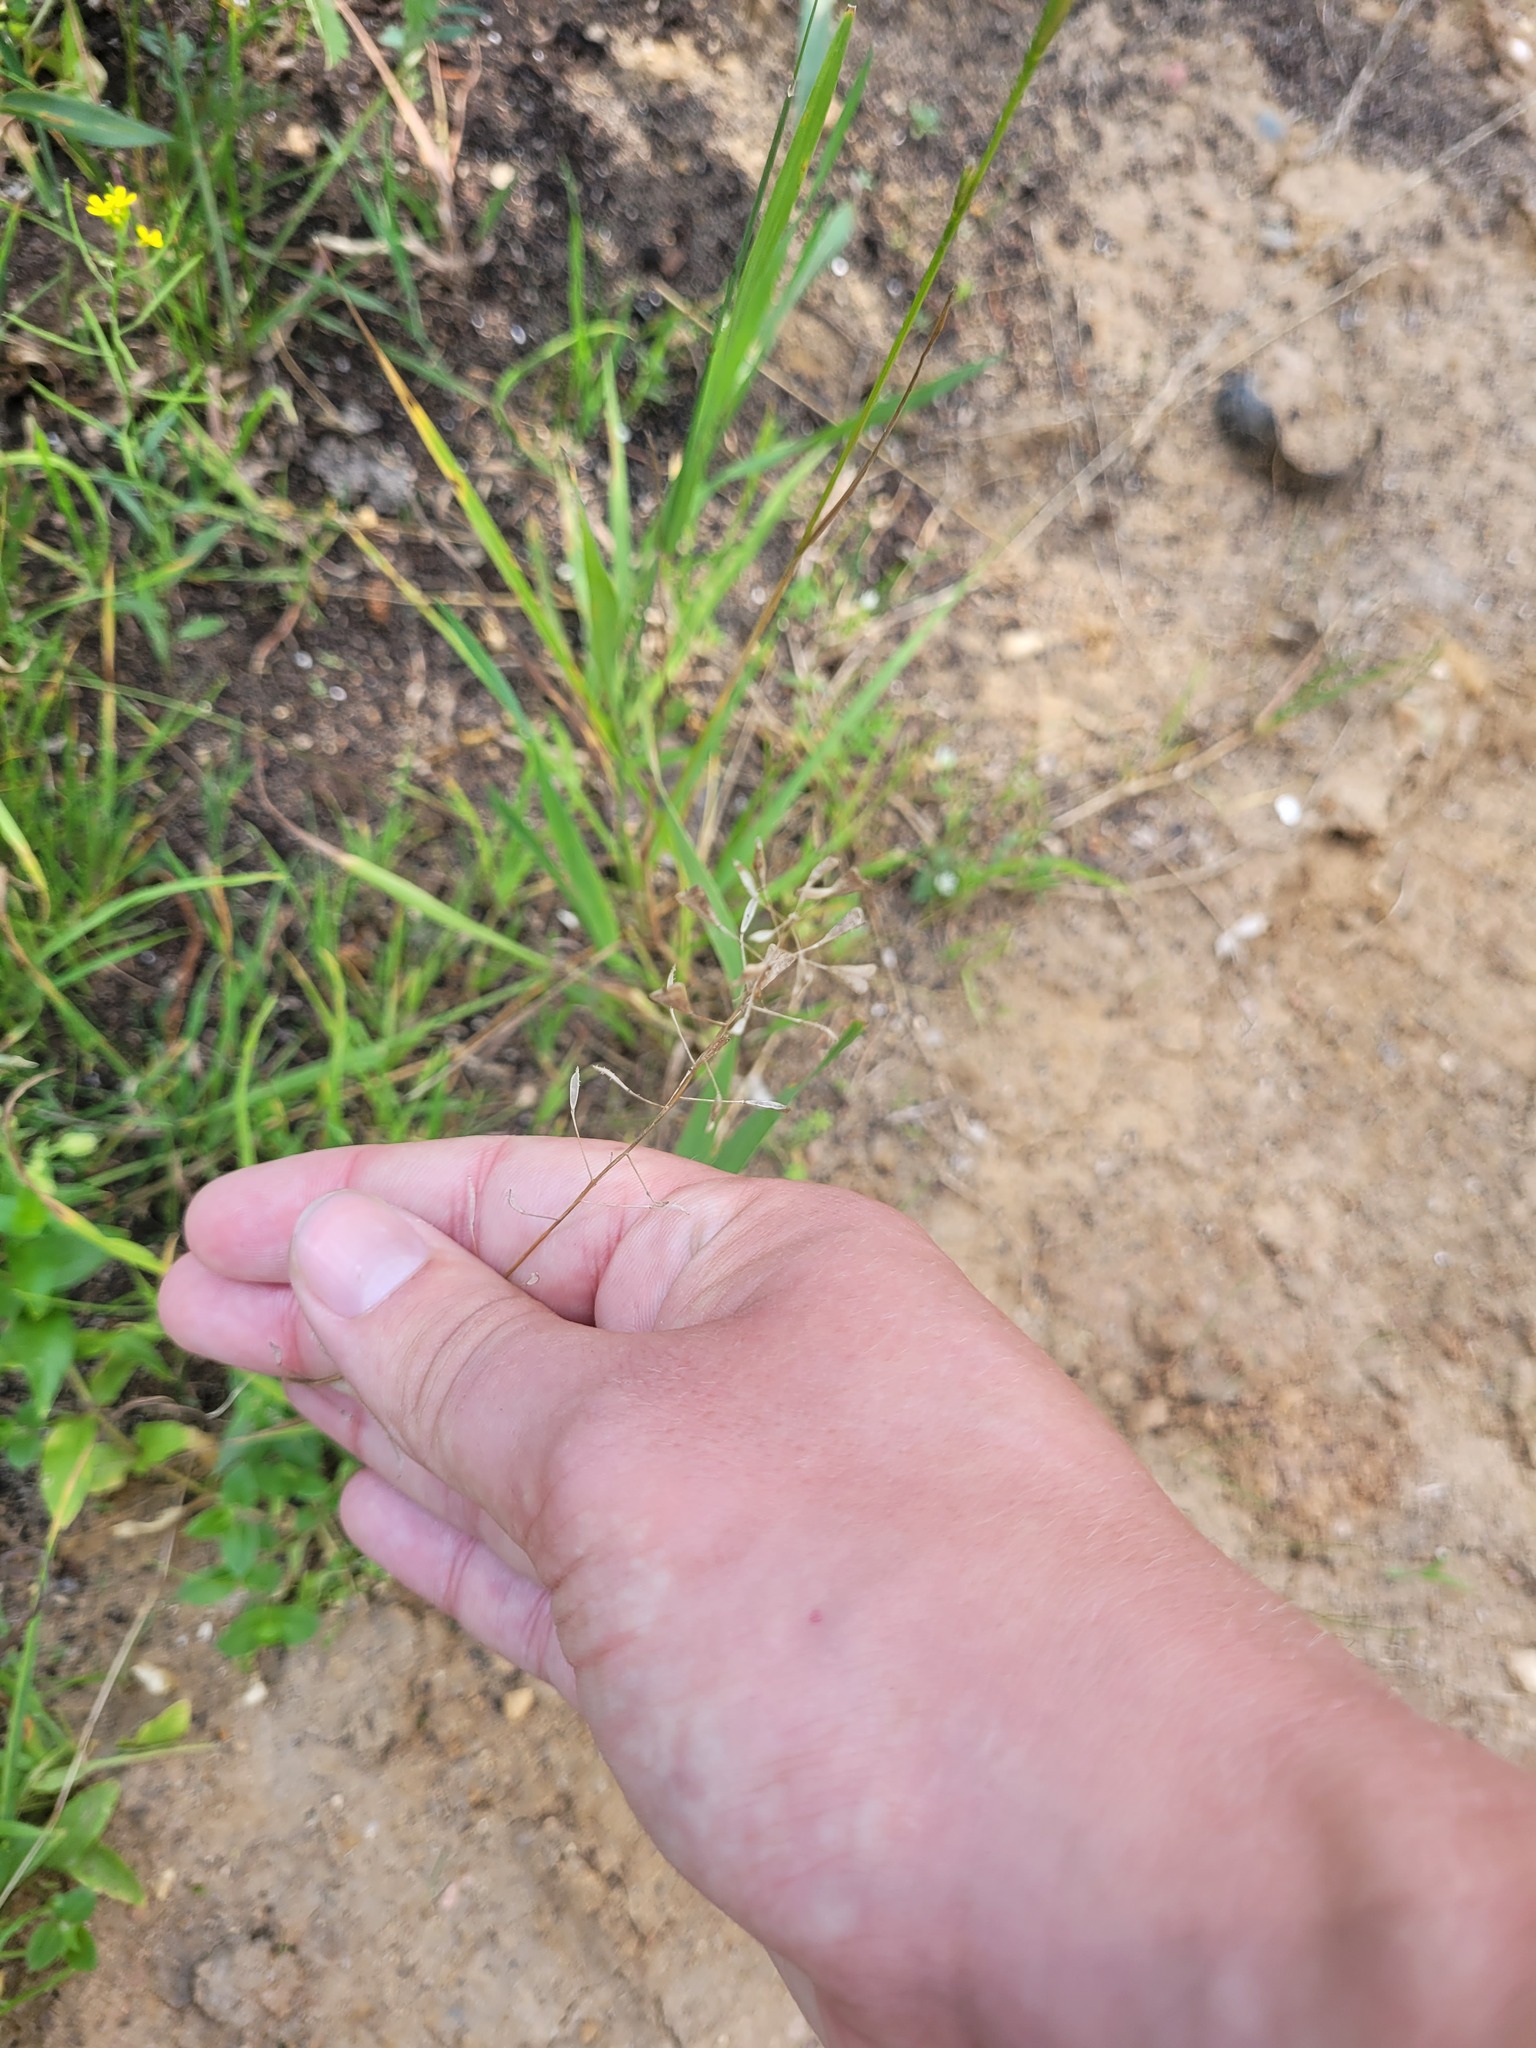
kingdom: Plantae
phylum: Tracheophyta
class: Magnoliopsida
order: Brassicales
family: Brassicaceae
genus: Capsella
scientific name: Capsella bursa-pastoris
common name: Shepherd's purse
